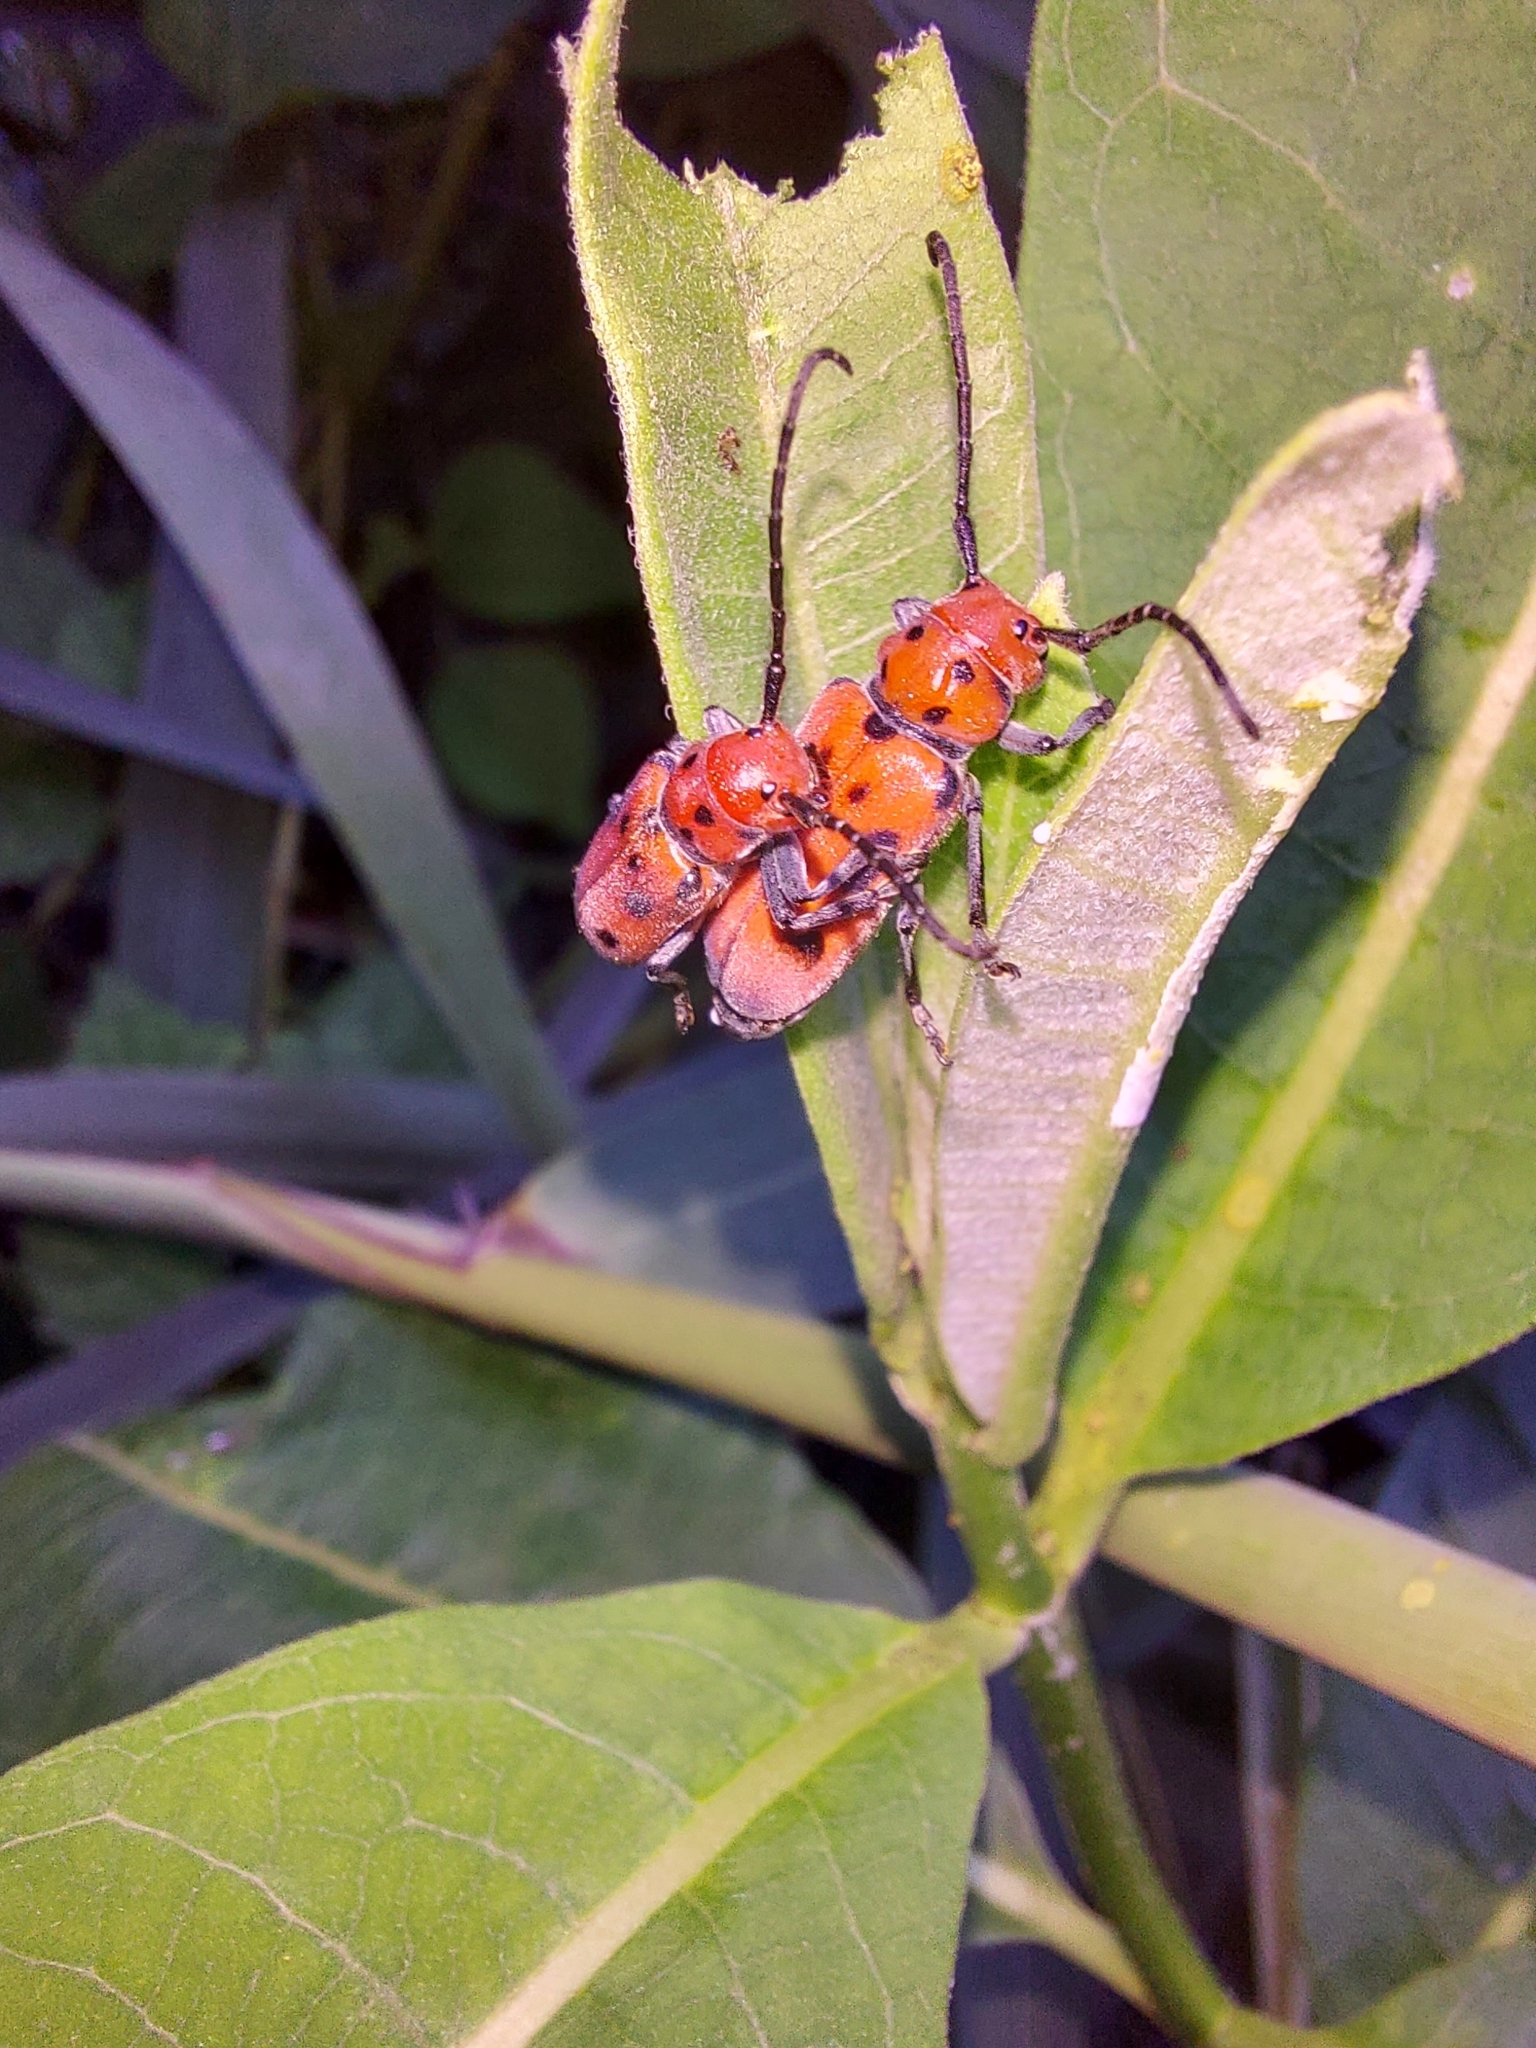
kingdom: Animalia
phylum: Arthropoda
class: Insecta
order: Coleoptera
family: Cerambycidae
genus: Tetraopes
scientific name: Tetraopes tetrophthalmus
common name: Red milkweed beetle
